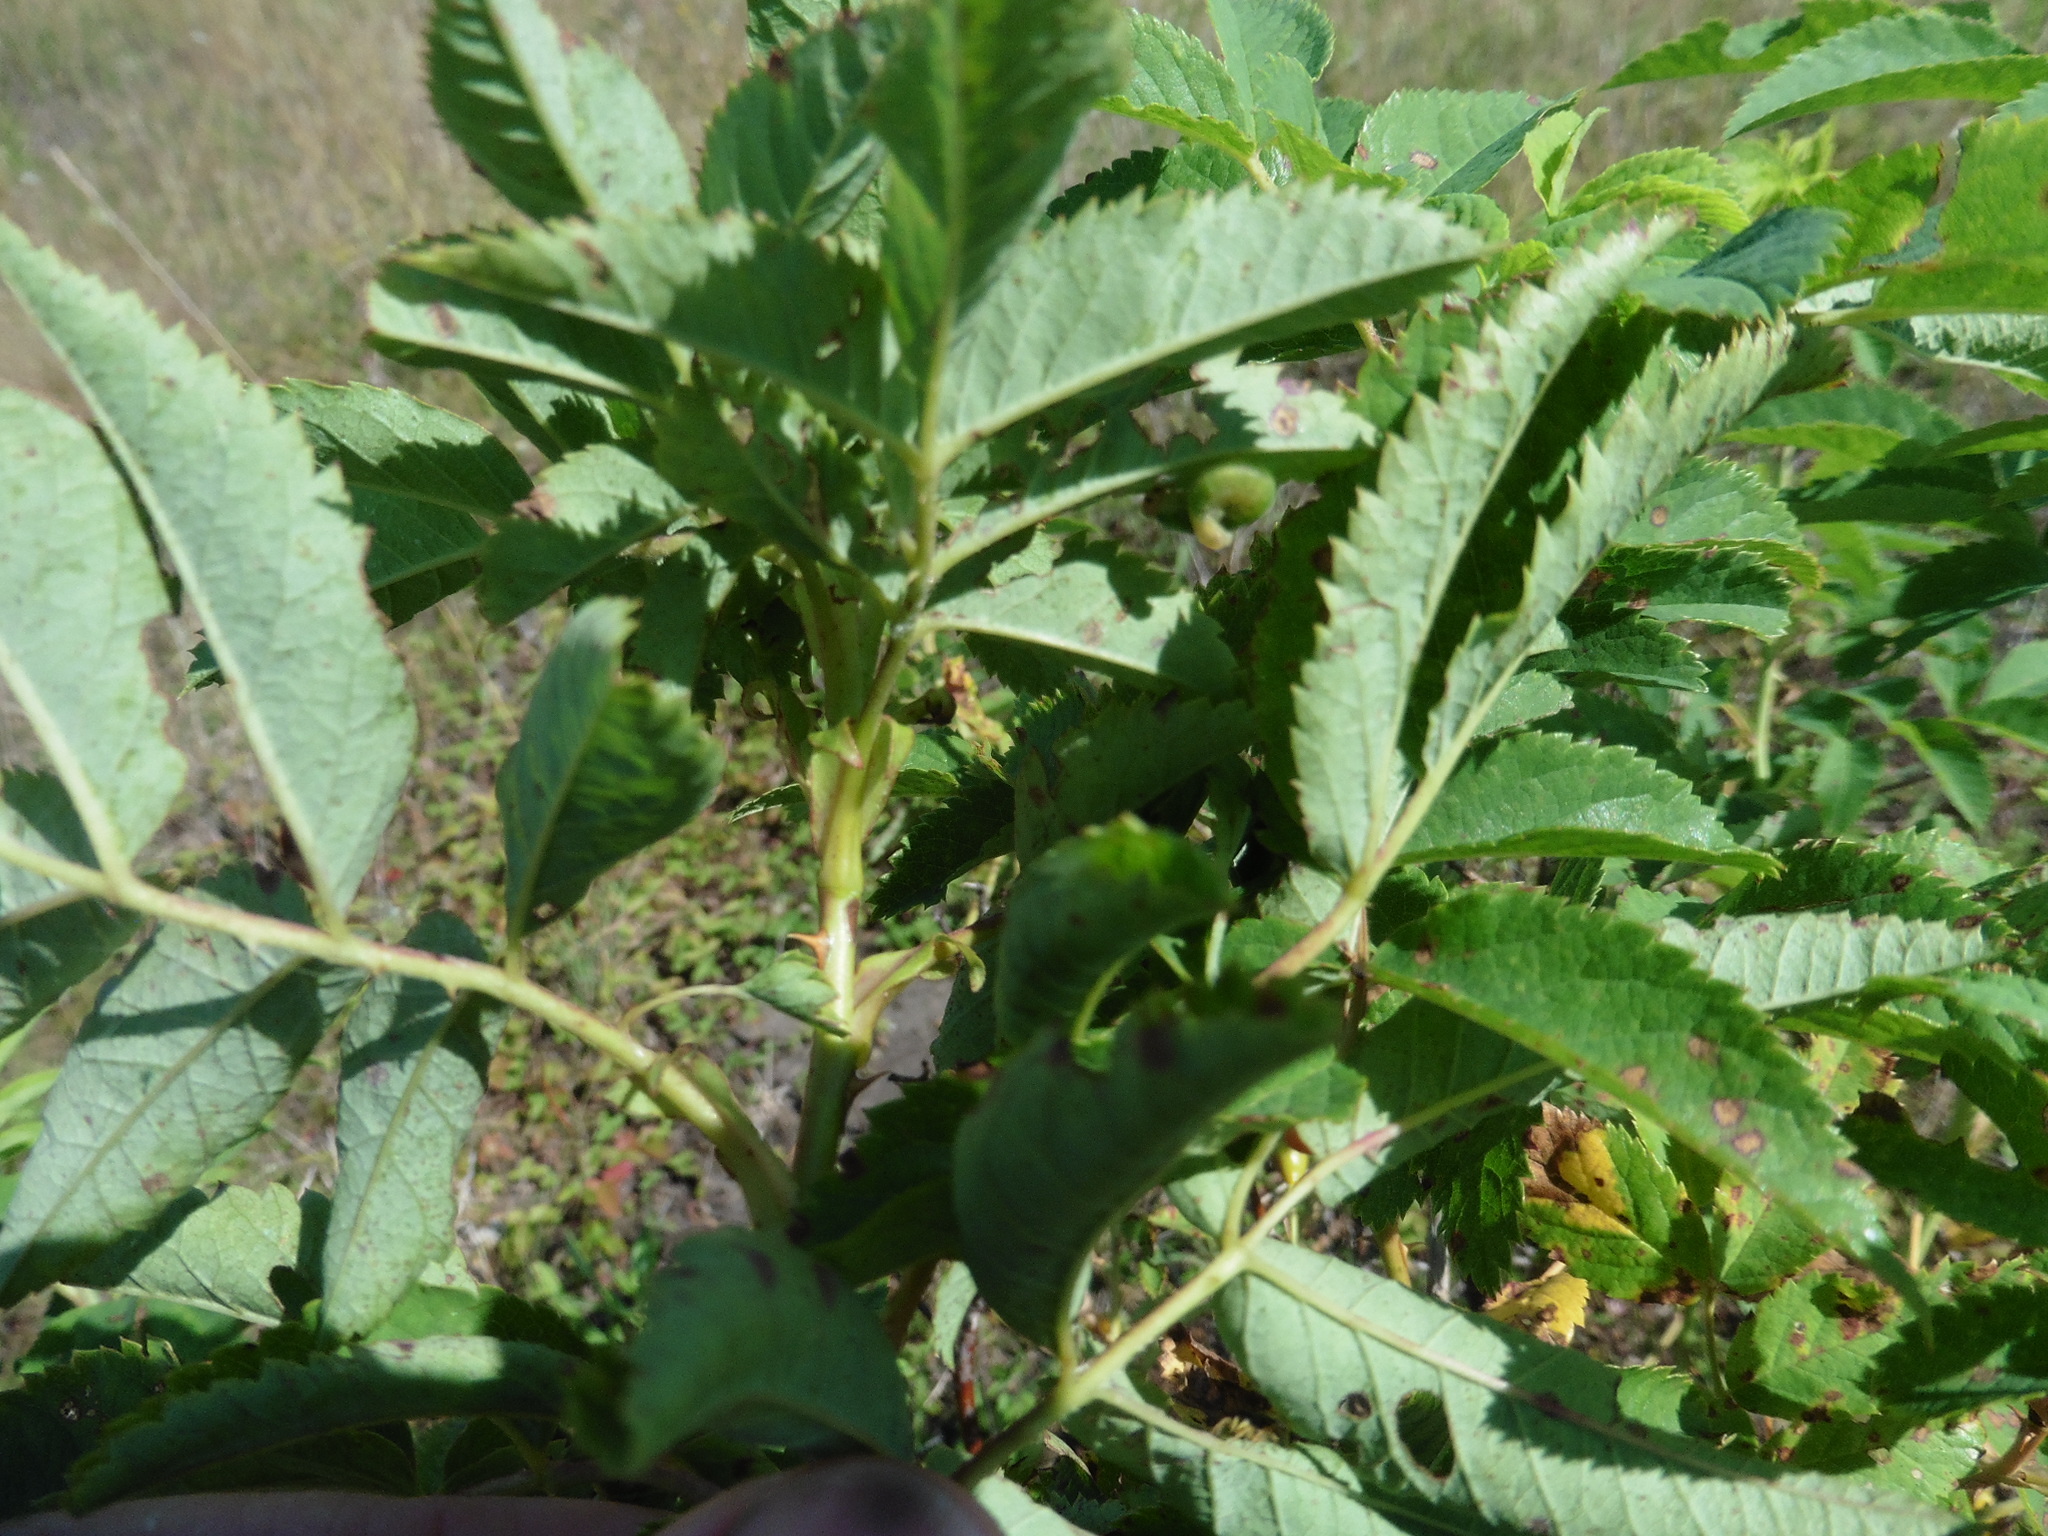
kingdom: Plantae
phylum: Tracheophyta
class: Magnoliopsida
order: Rosales
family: Rosaceae
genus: Rosa
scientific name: Rosa glabrifolia
